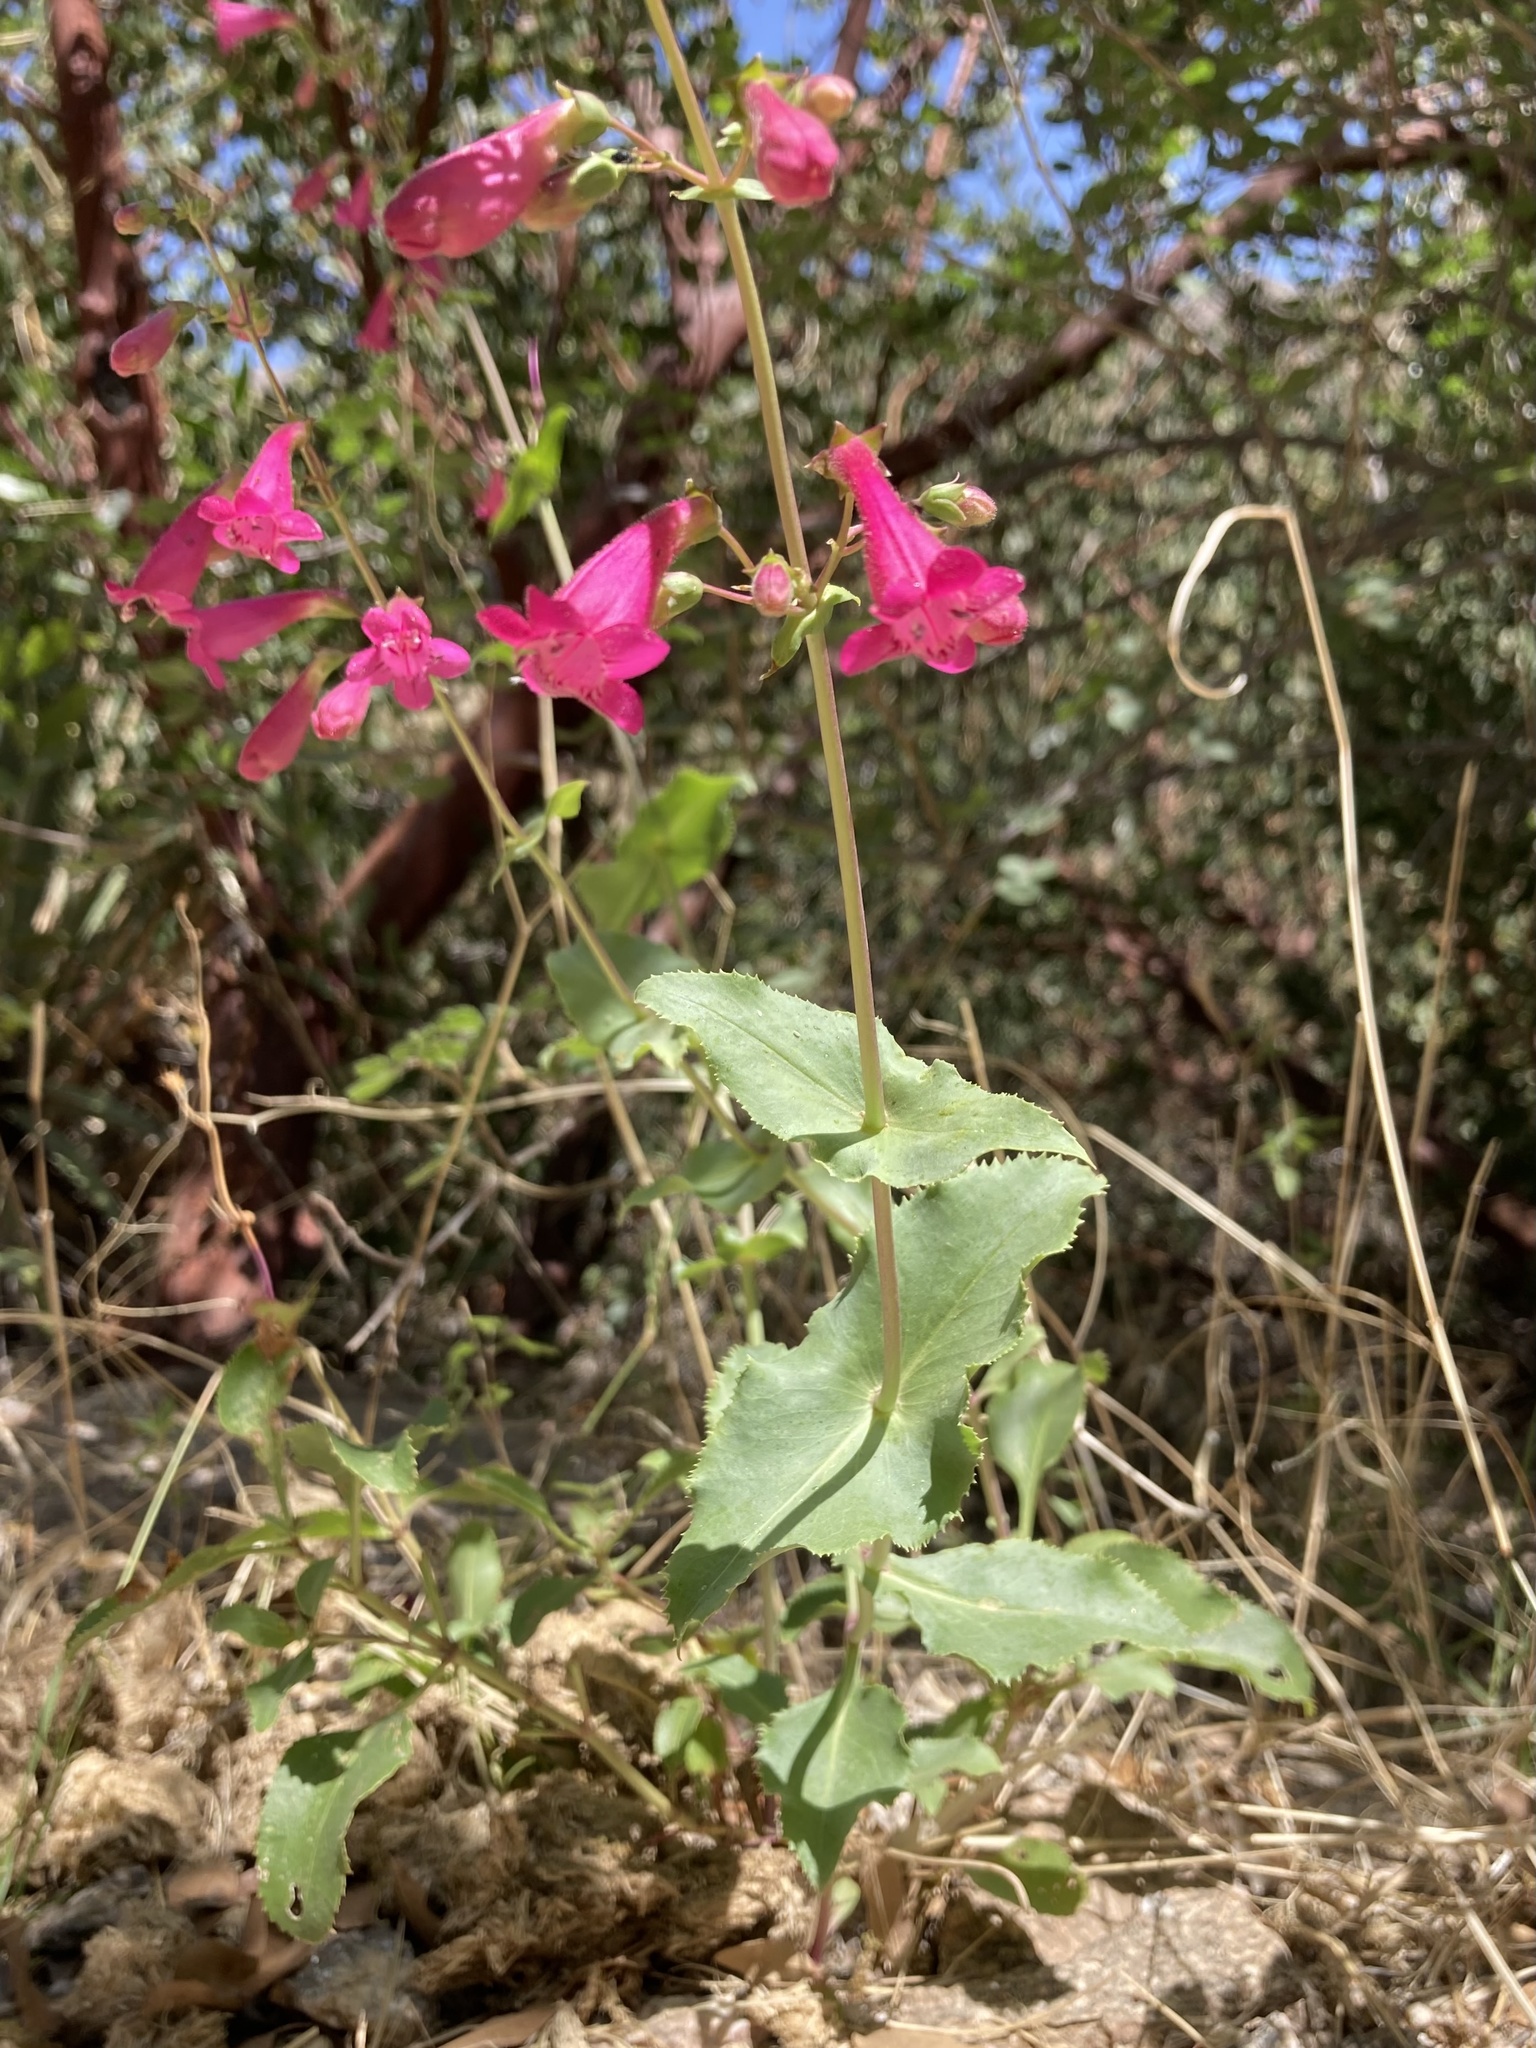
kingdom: Plantae
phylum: Tracheophyta
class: Magnoliopsida
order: Lamiales
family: Plantaginaceae
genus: Penstemon
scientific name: Penstemon pseudospectabilis
